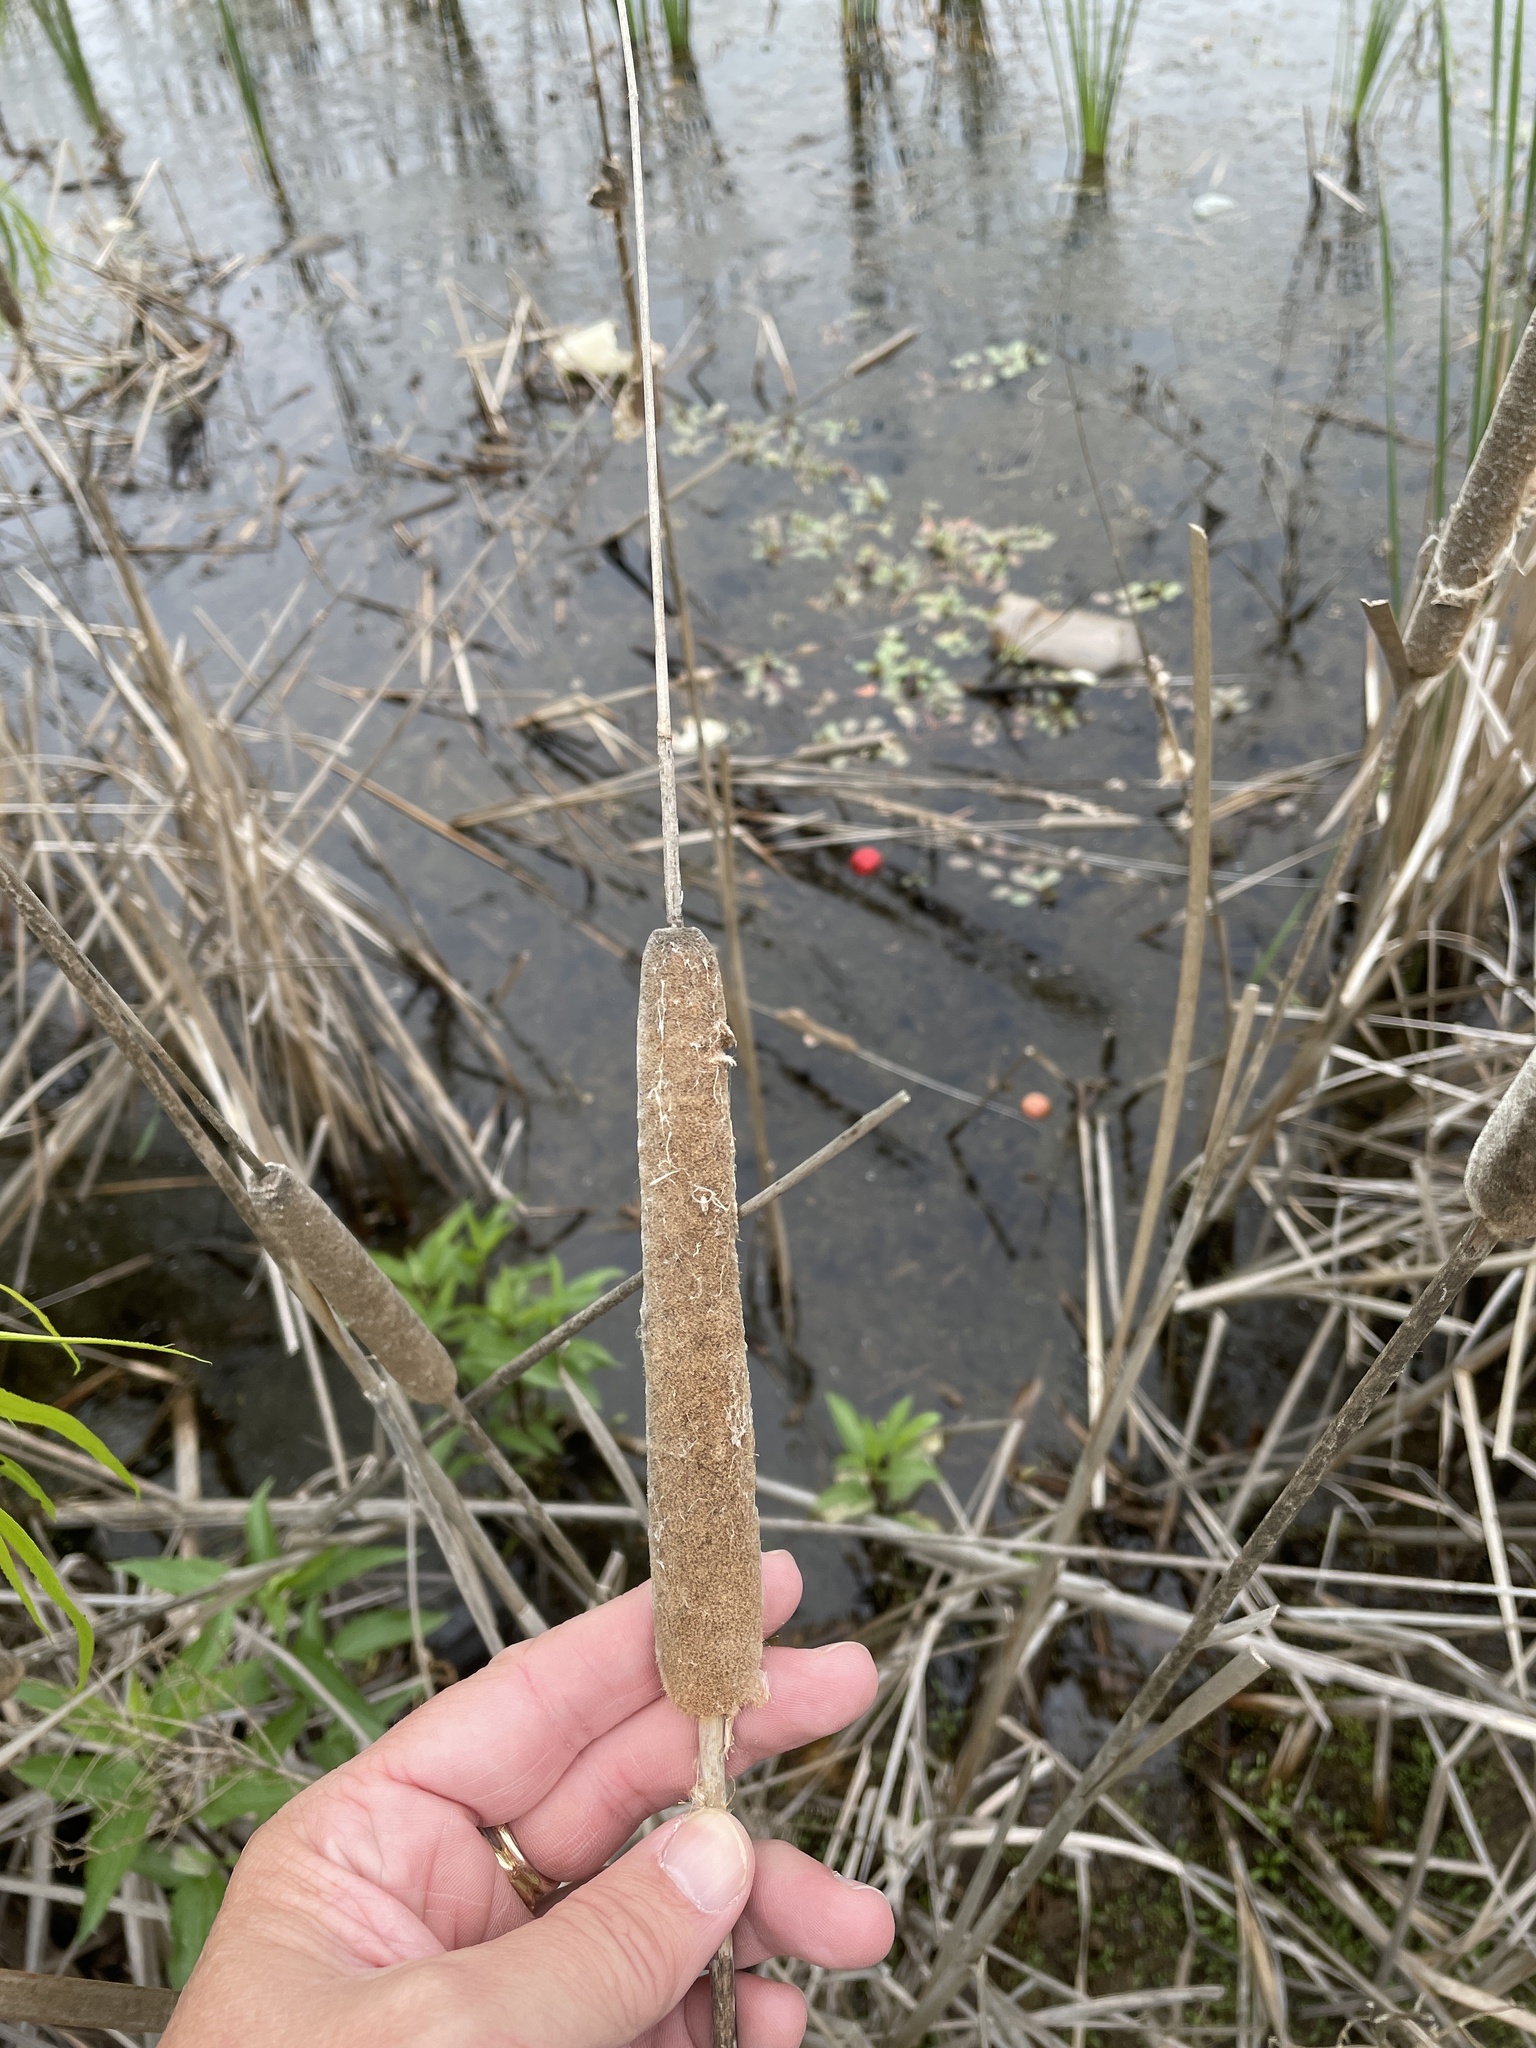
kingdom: Plantae
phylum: Tracheophyta
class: Liliopsida
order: Poales
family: Typhaceae
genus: Typha
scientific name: Typha domingensis
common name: Southern cattail
